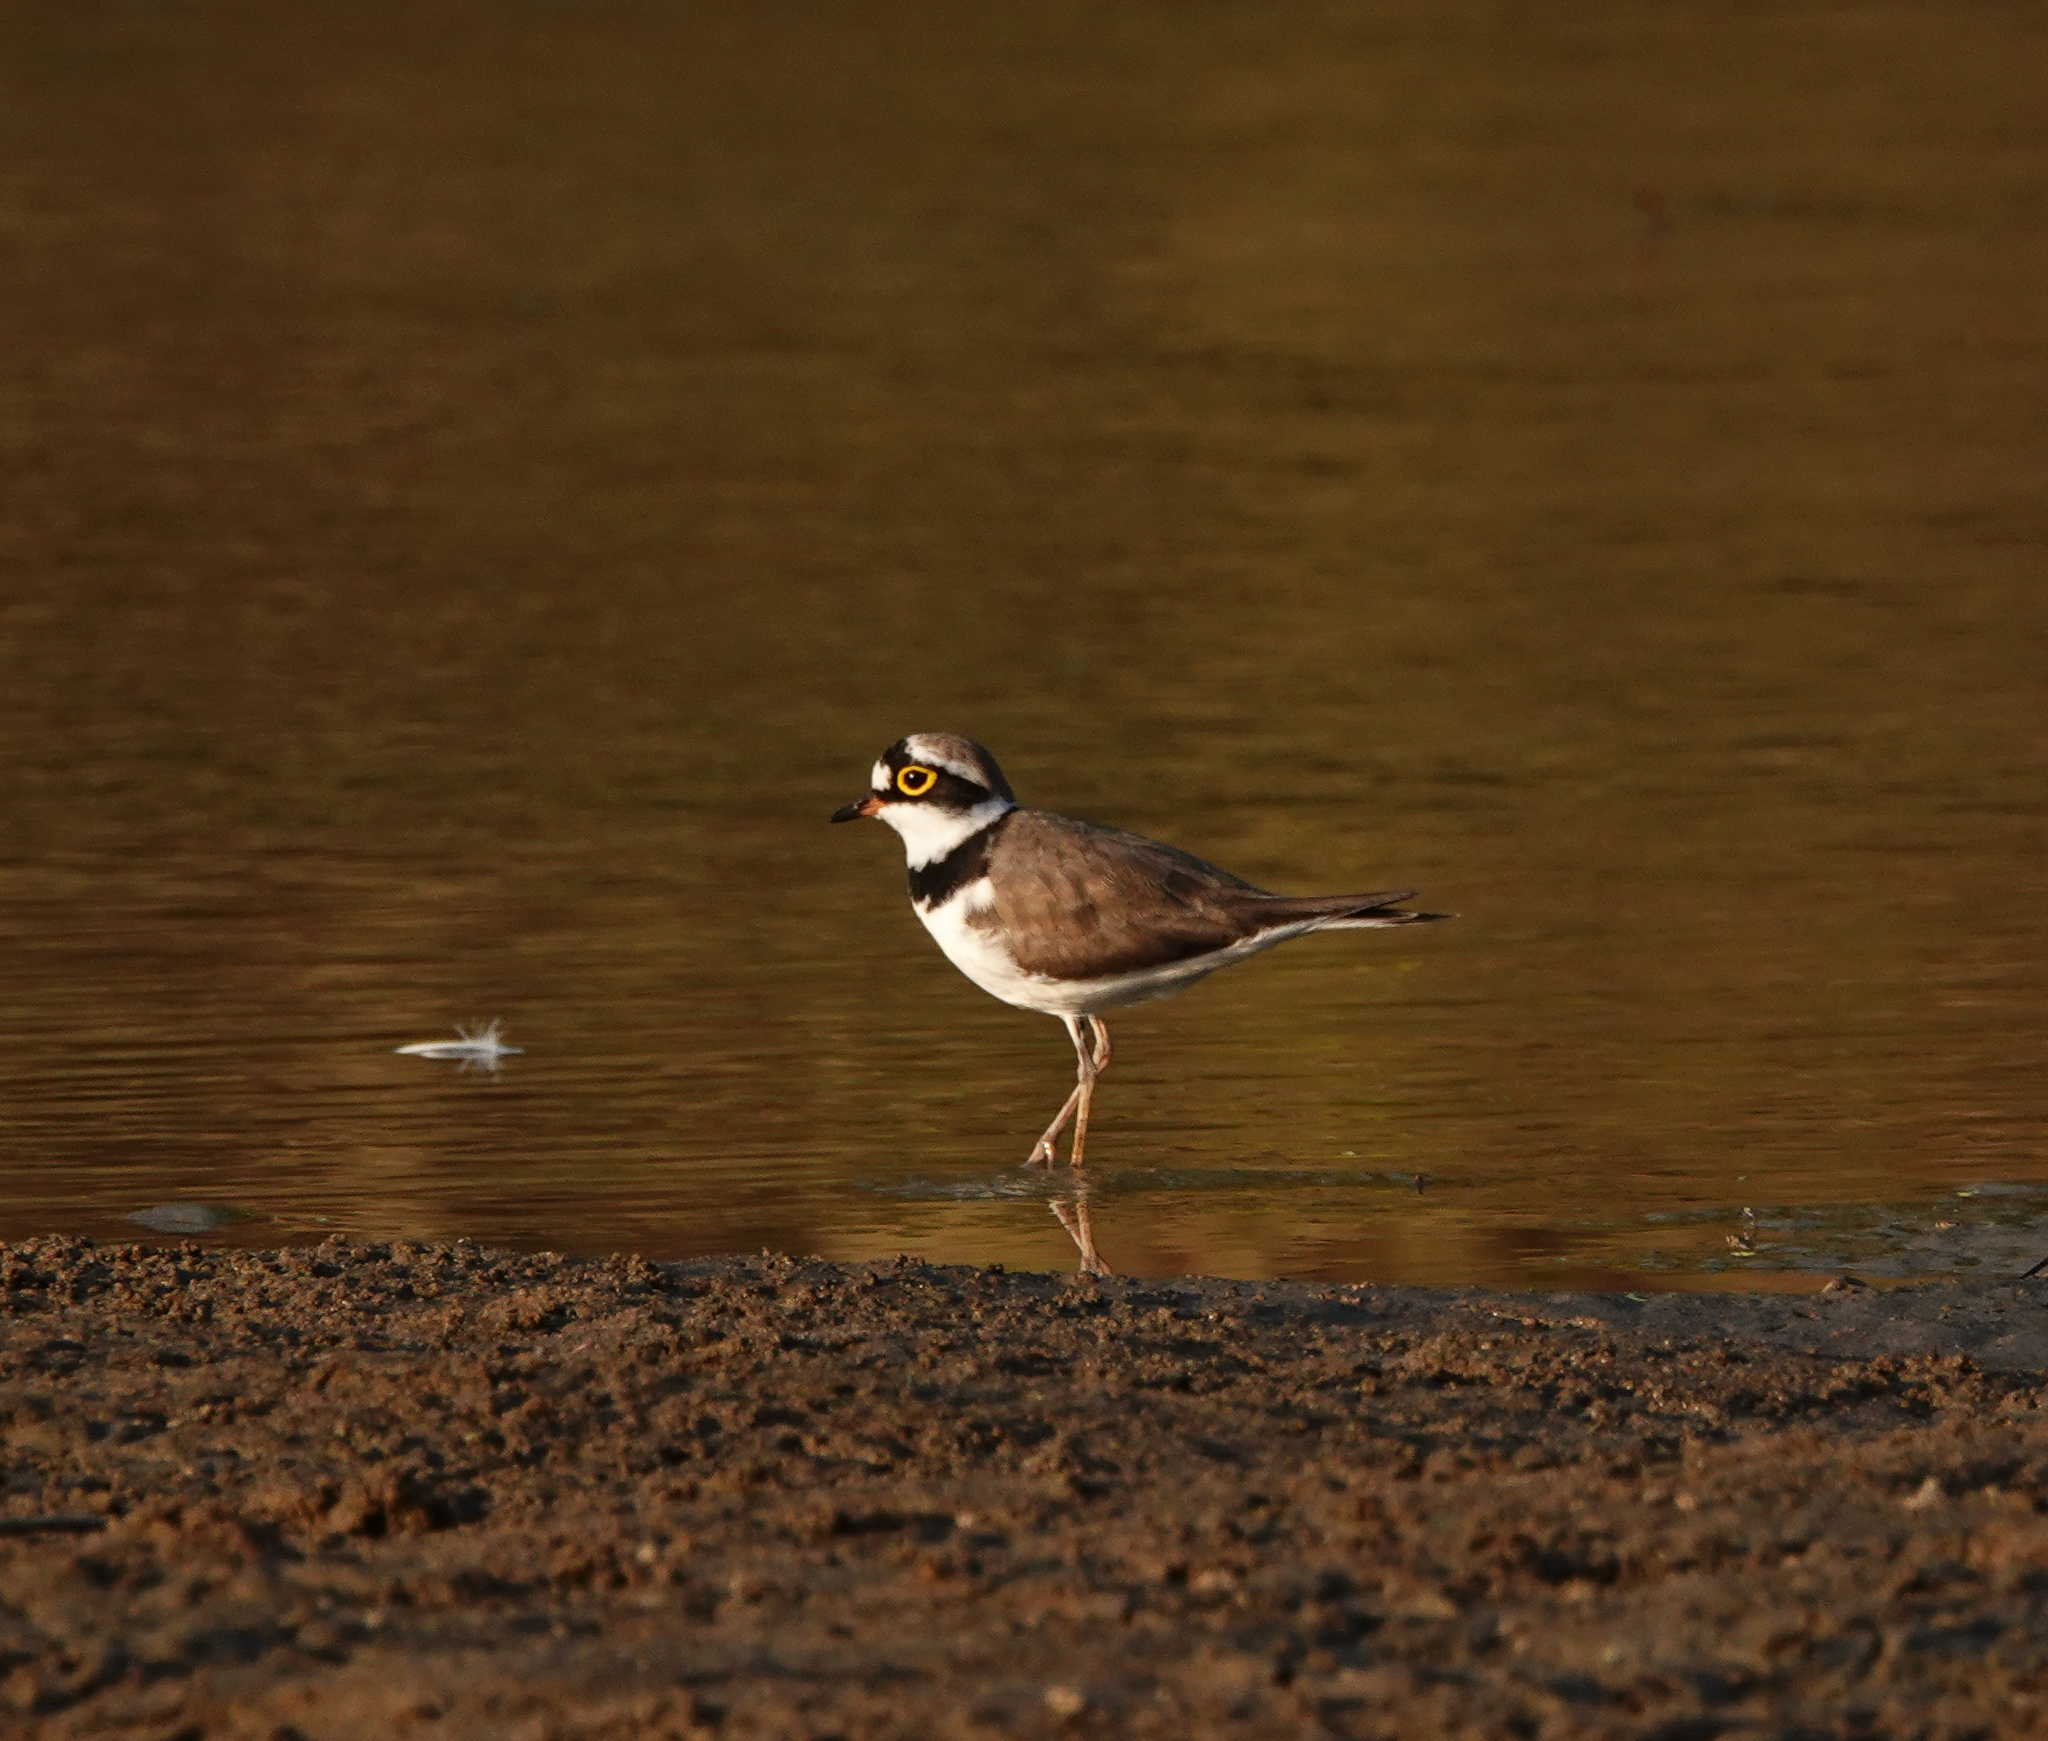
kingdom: Animalia
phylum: Chordata
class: Aves
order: Charadriiformes
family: Charadriidae
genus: Charadrius
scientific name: Charadrius dubius
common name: Little ringed plover
